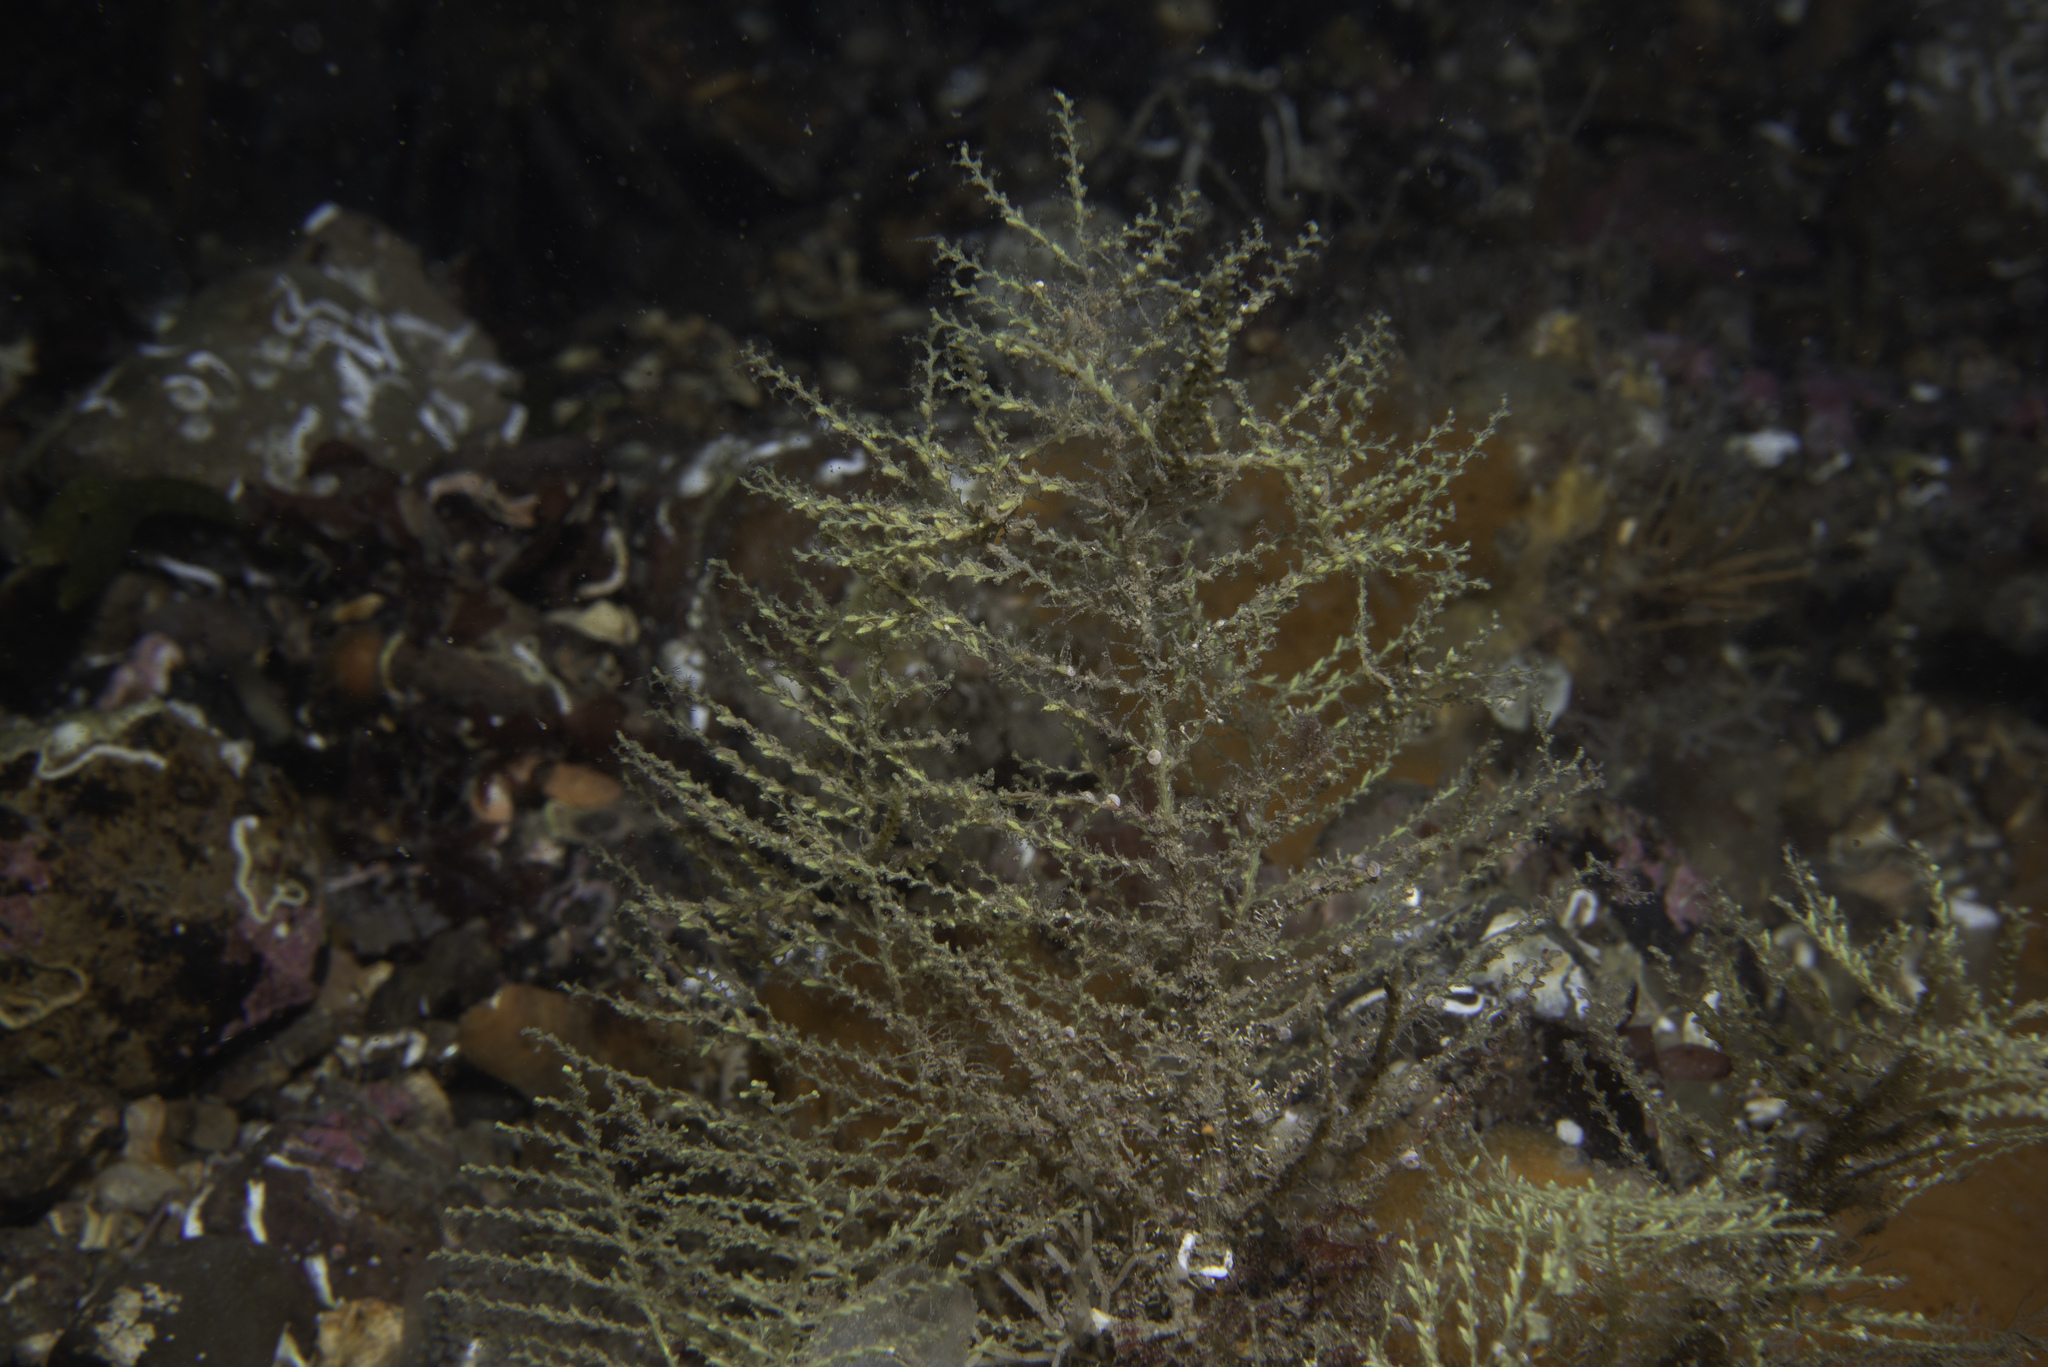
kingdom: Animalia
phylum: Cnidaria
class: Hydrozoa
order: Leptothecata
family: Sertularellidae
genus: Sertularella
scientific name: Sertularella gayi
